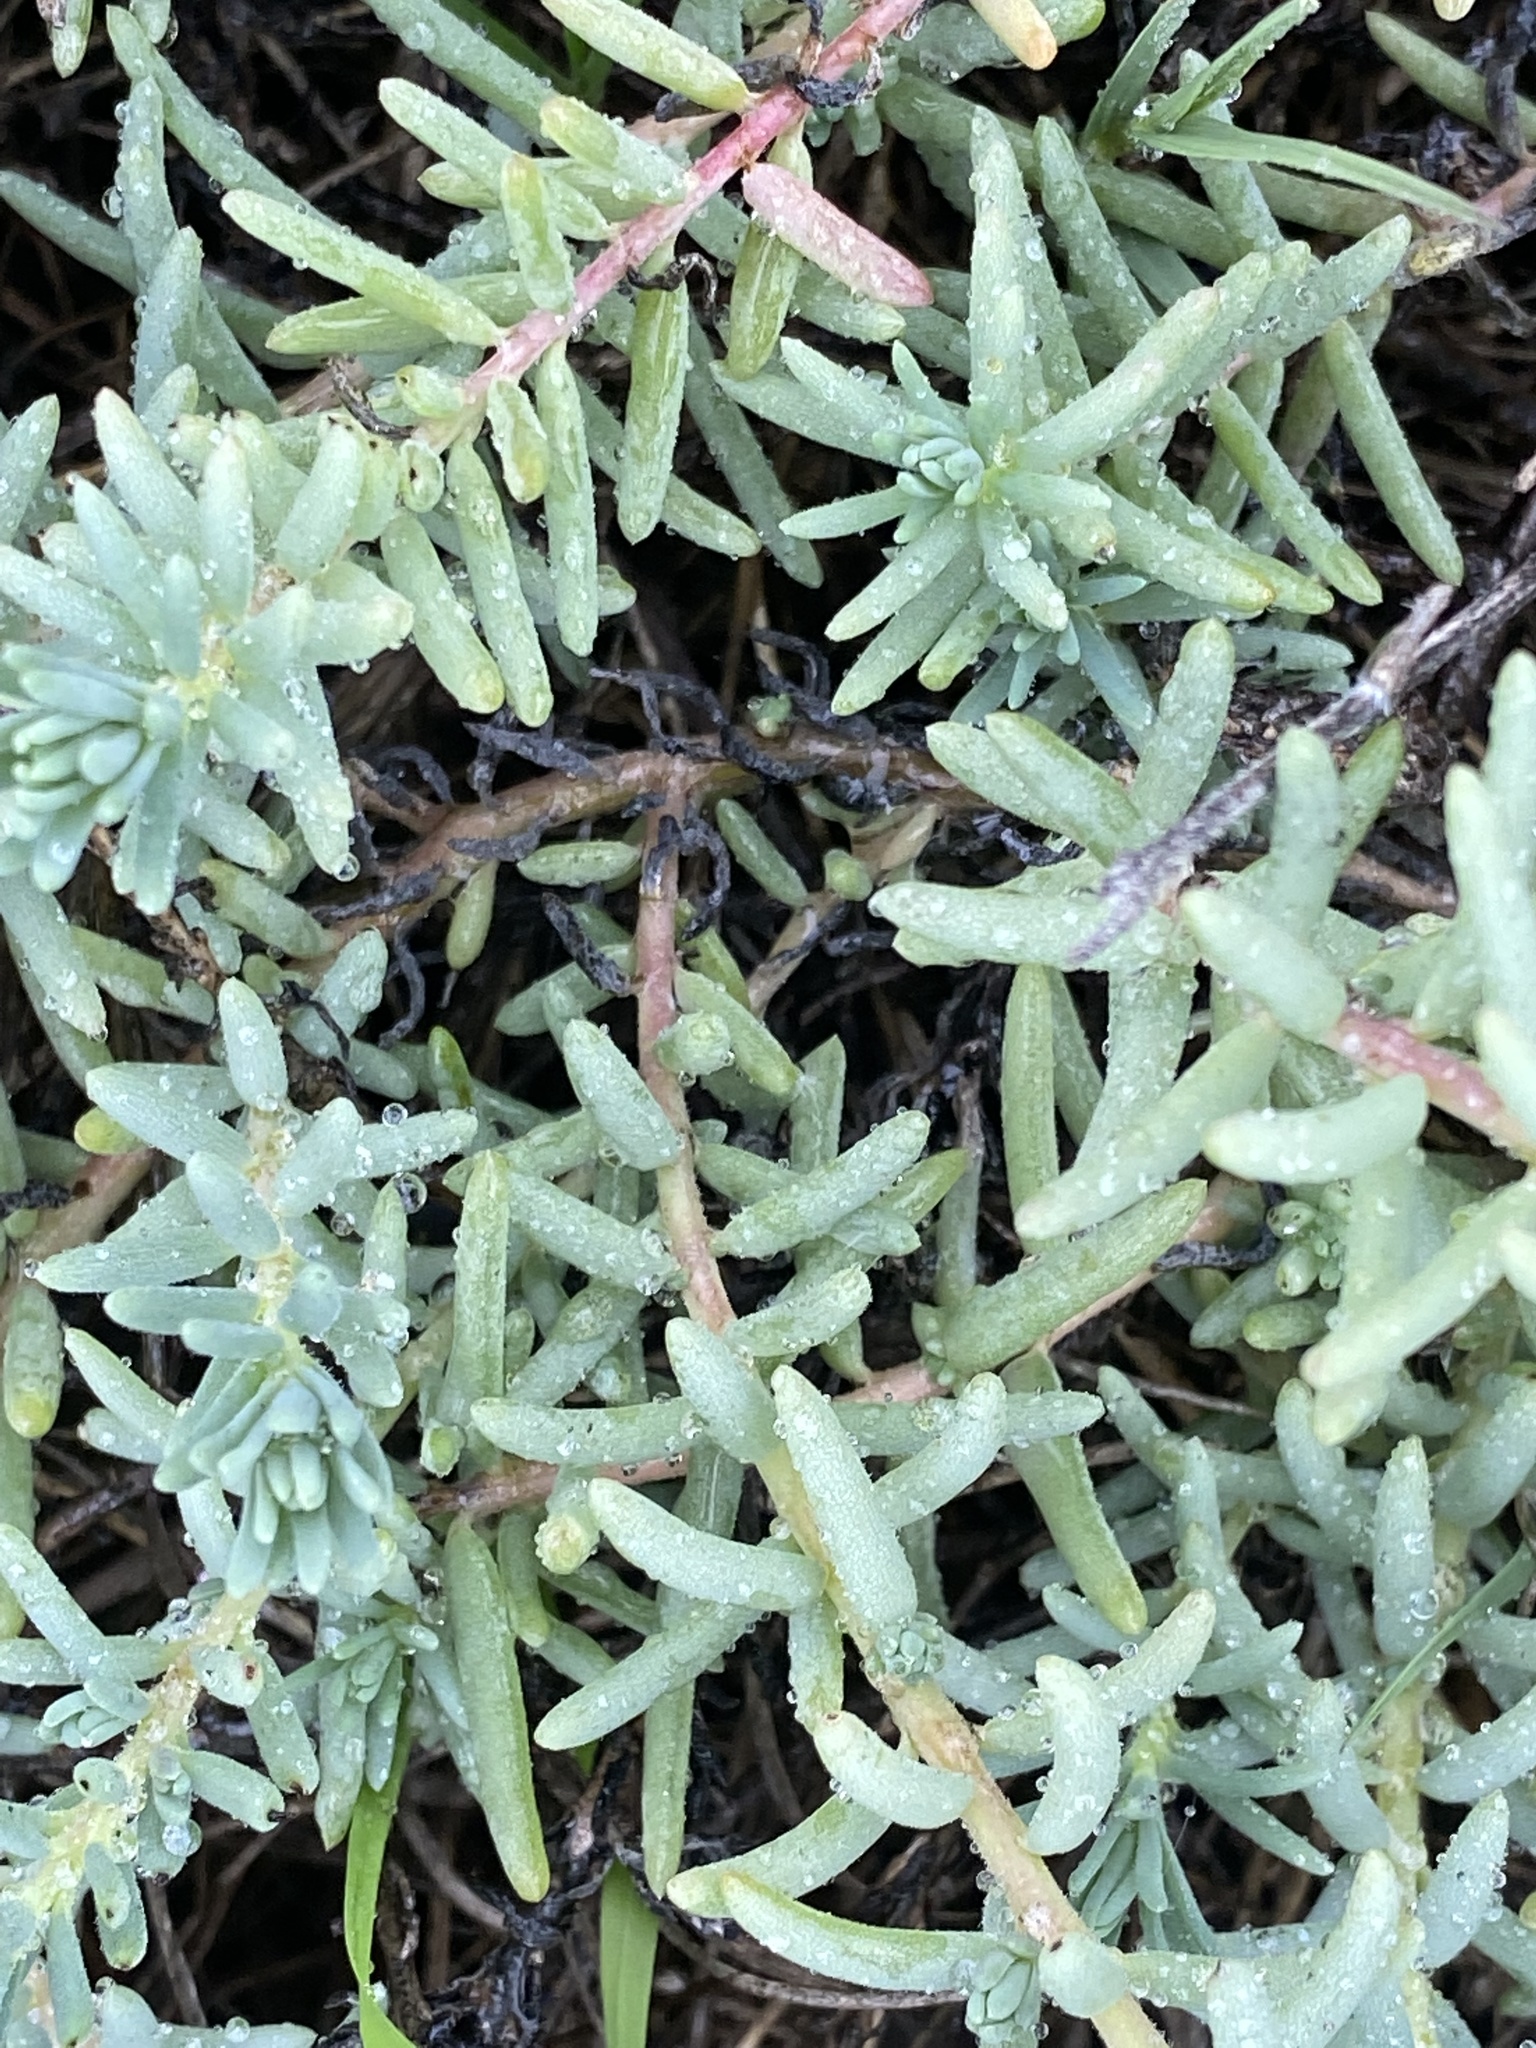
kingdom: Plantae
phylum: Tracheophyta
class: Magnoliopsida
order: Caryophyllales
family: Amaranthaceae
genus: Suaeda
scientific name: Suaeda taxifolia
